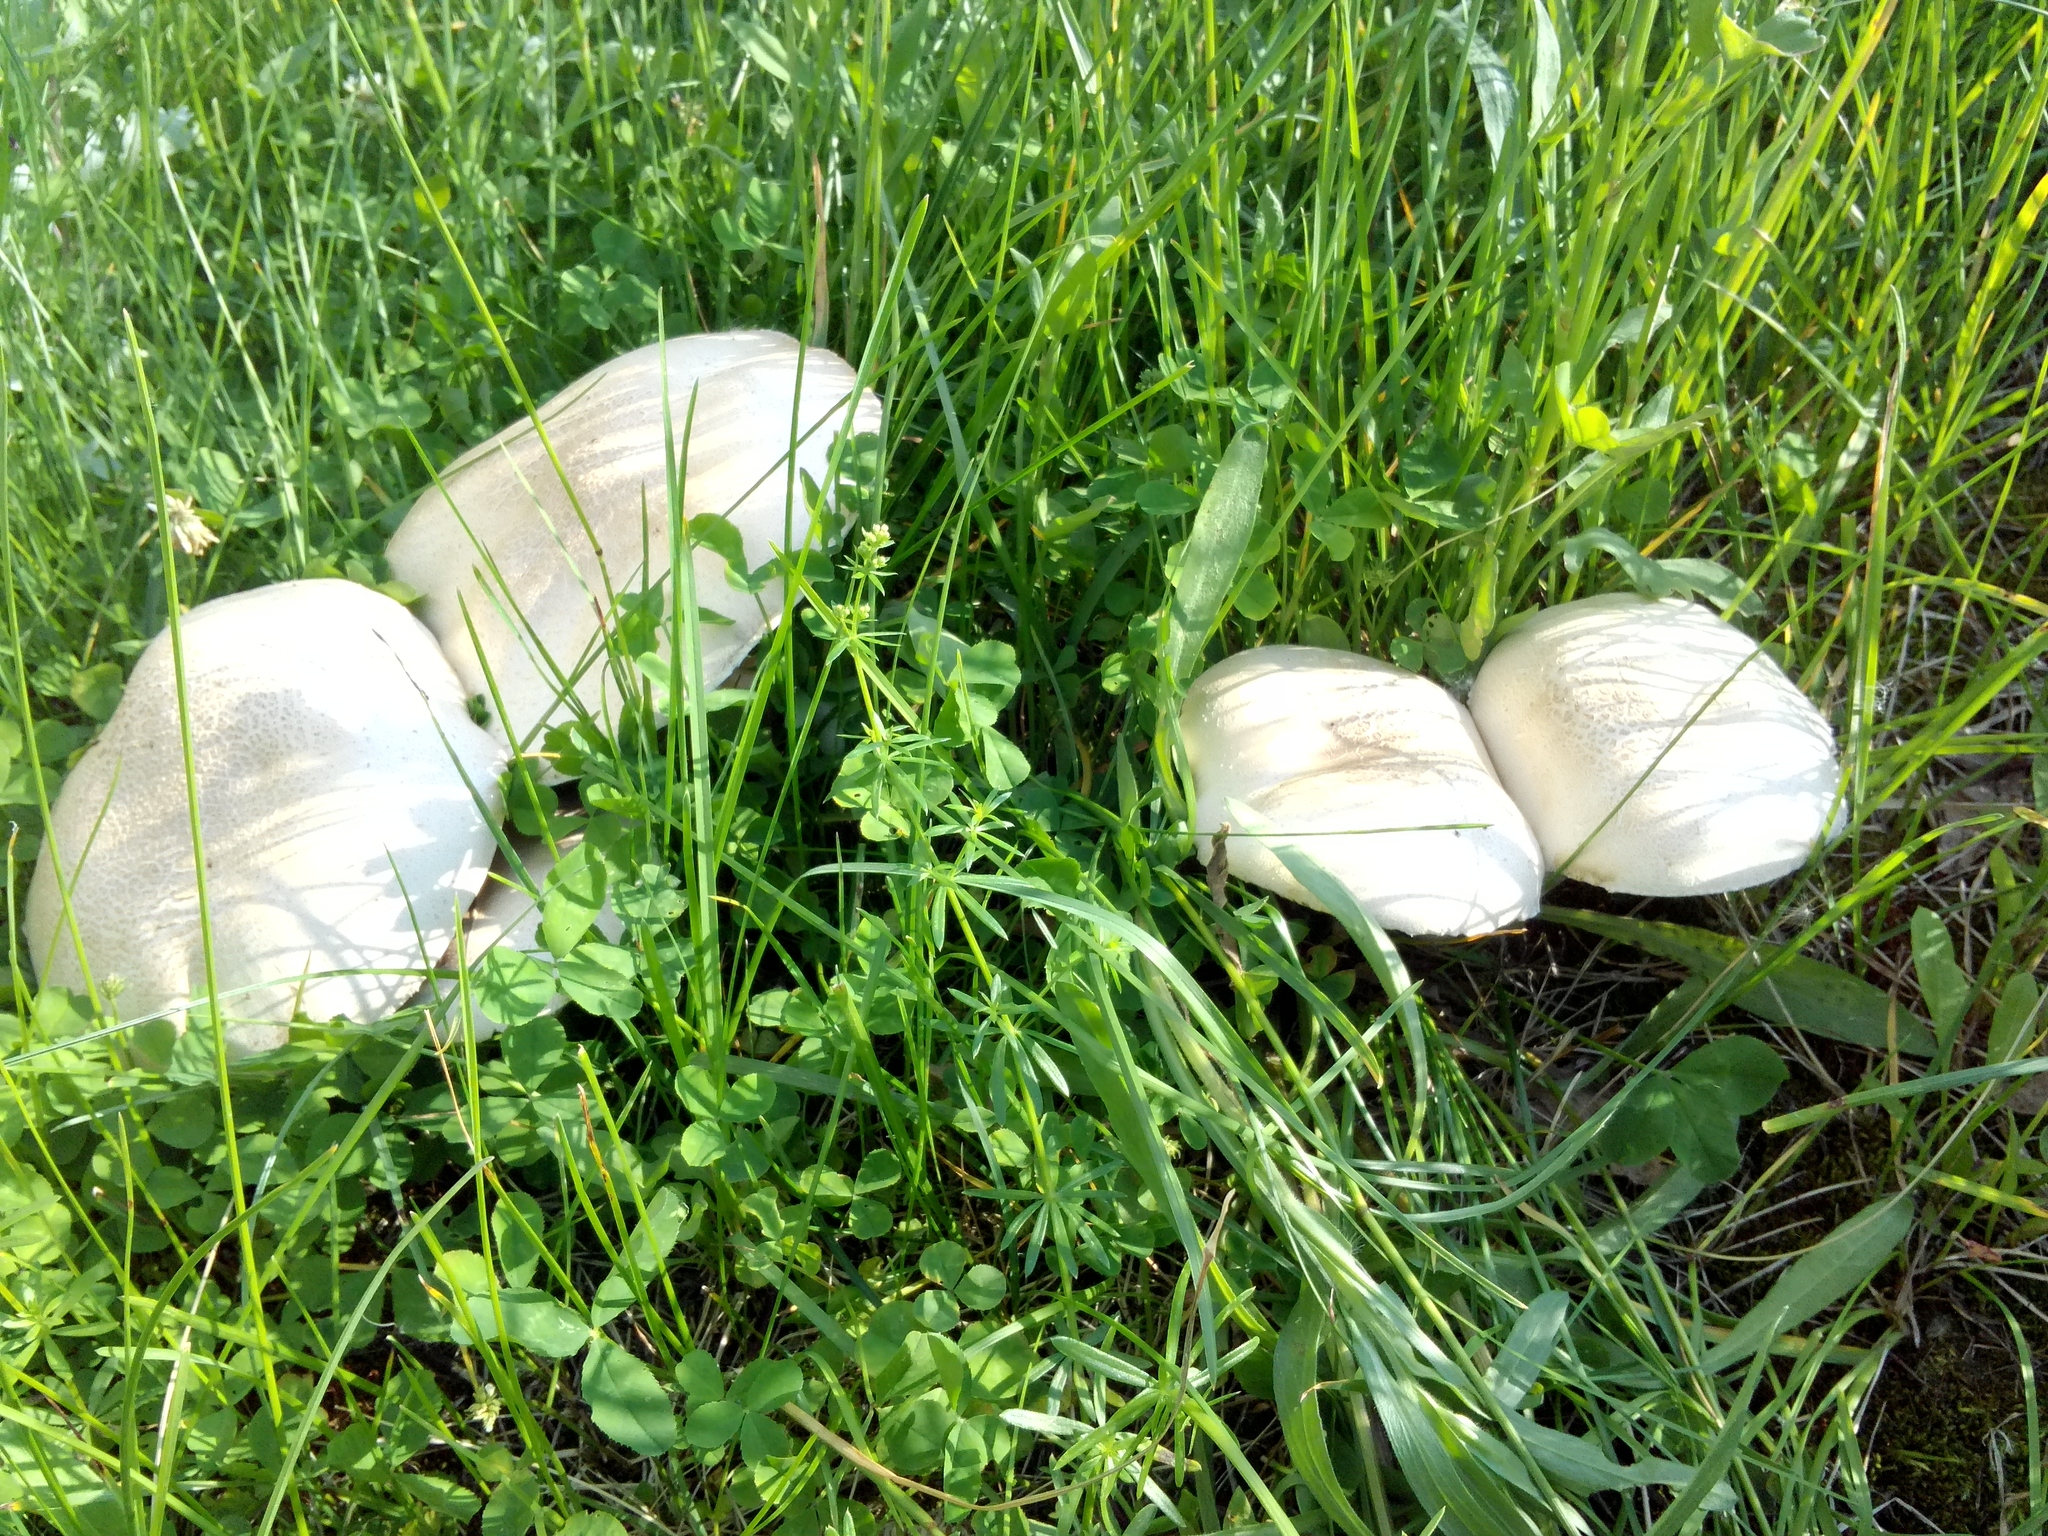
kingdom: Fungi
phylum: Basidiomycota
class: Agaricomycetes
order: Agaricales
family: Agaricaceae
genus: Agaricus
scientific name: Agaricus arvensis
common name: Horse mushroom
